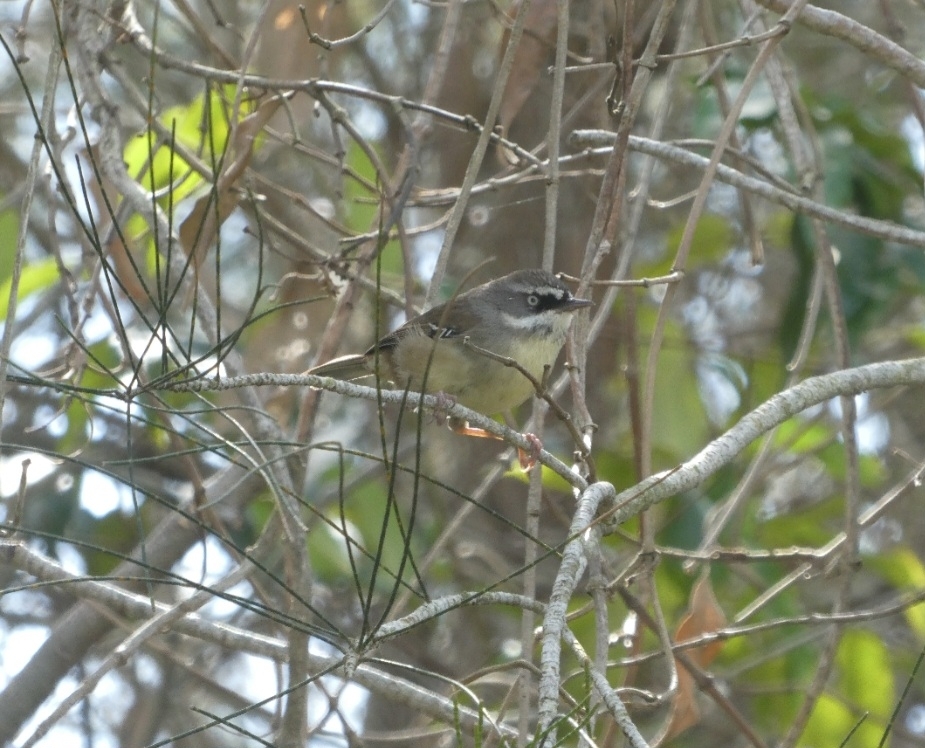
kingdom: Animalia
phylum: Chordata
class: Aves
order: Passeriformes
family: Acanthizidae
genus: Sericornis
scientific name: Sericornis frontalis
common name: White-browed scrubwren
